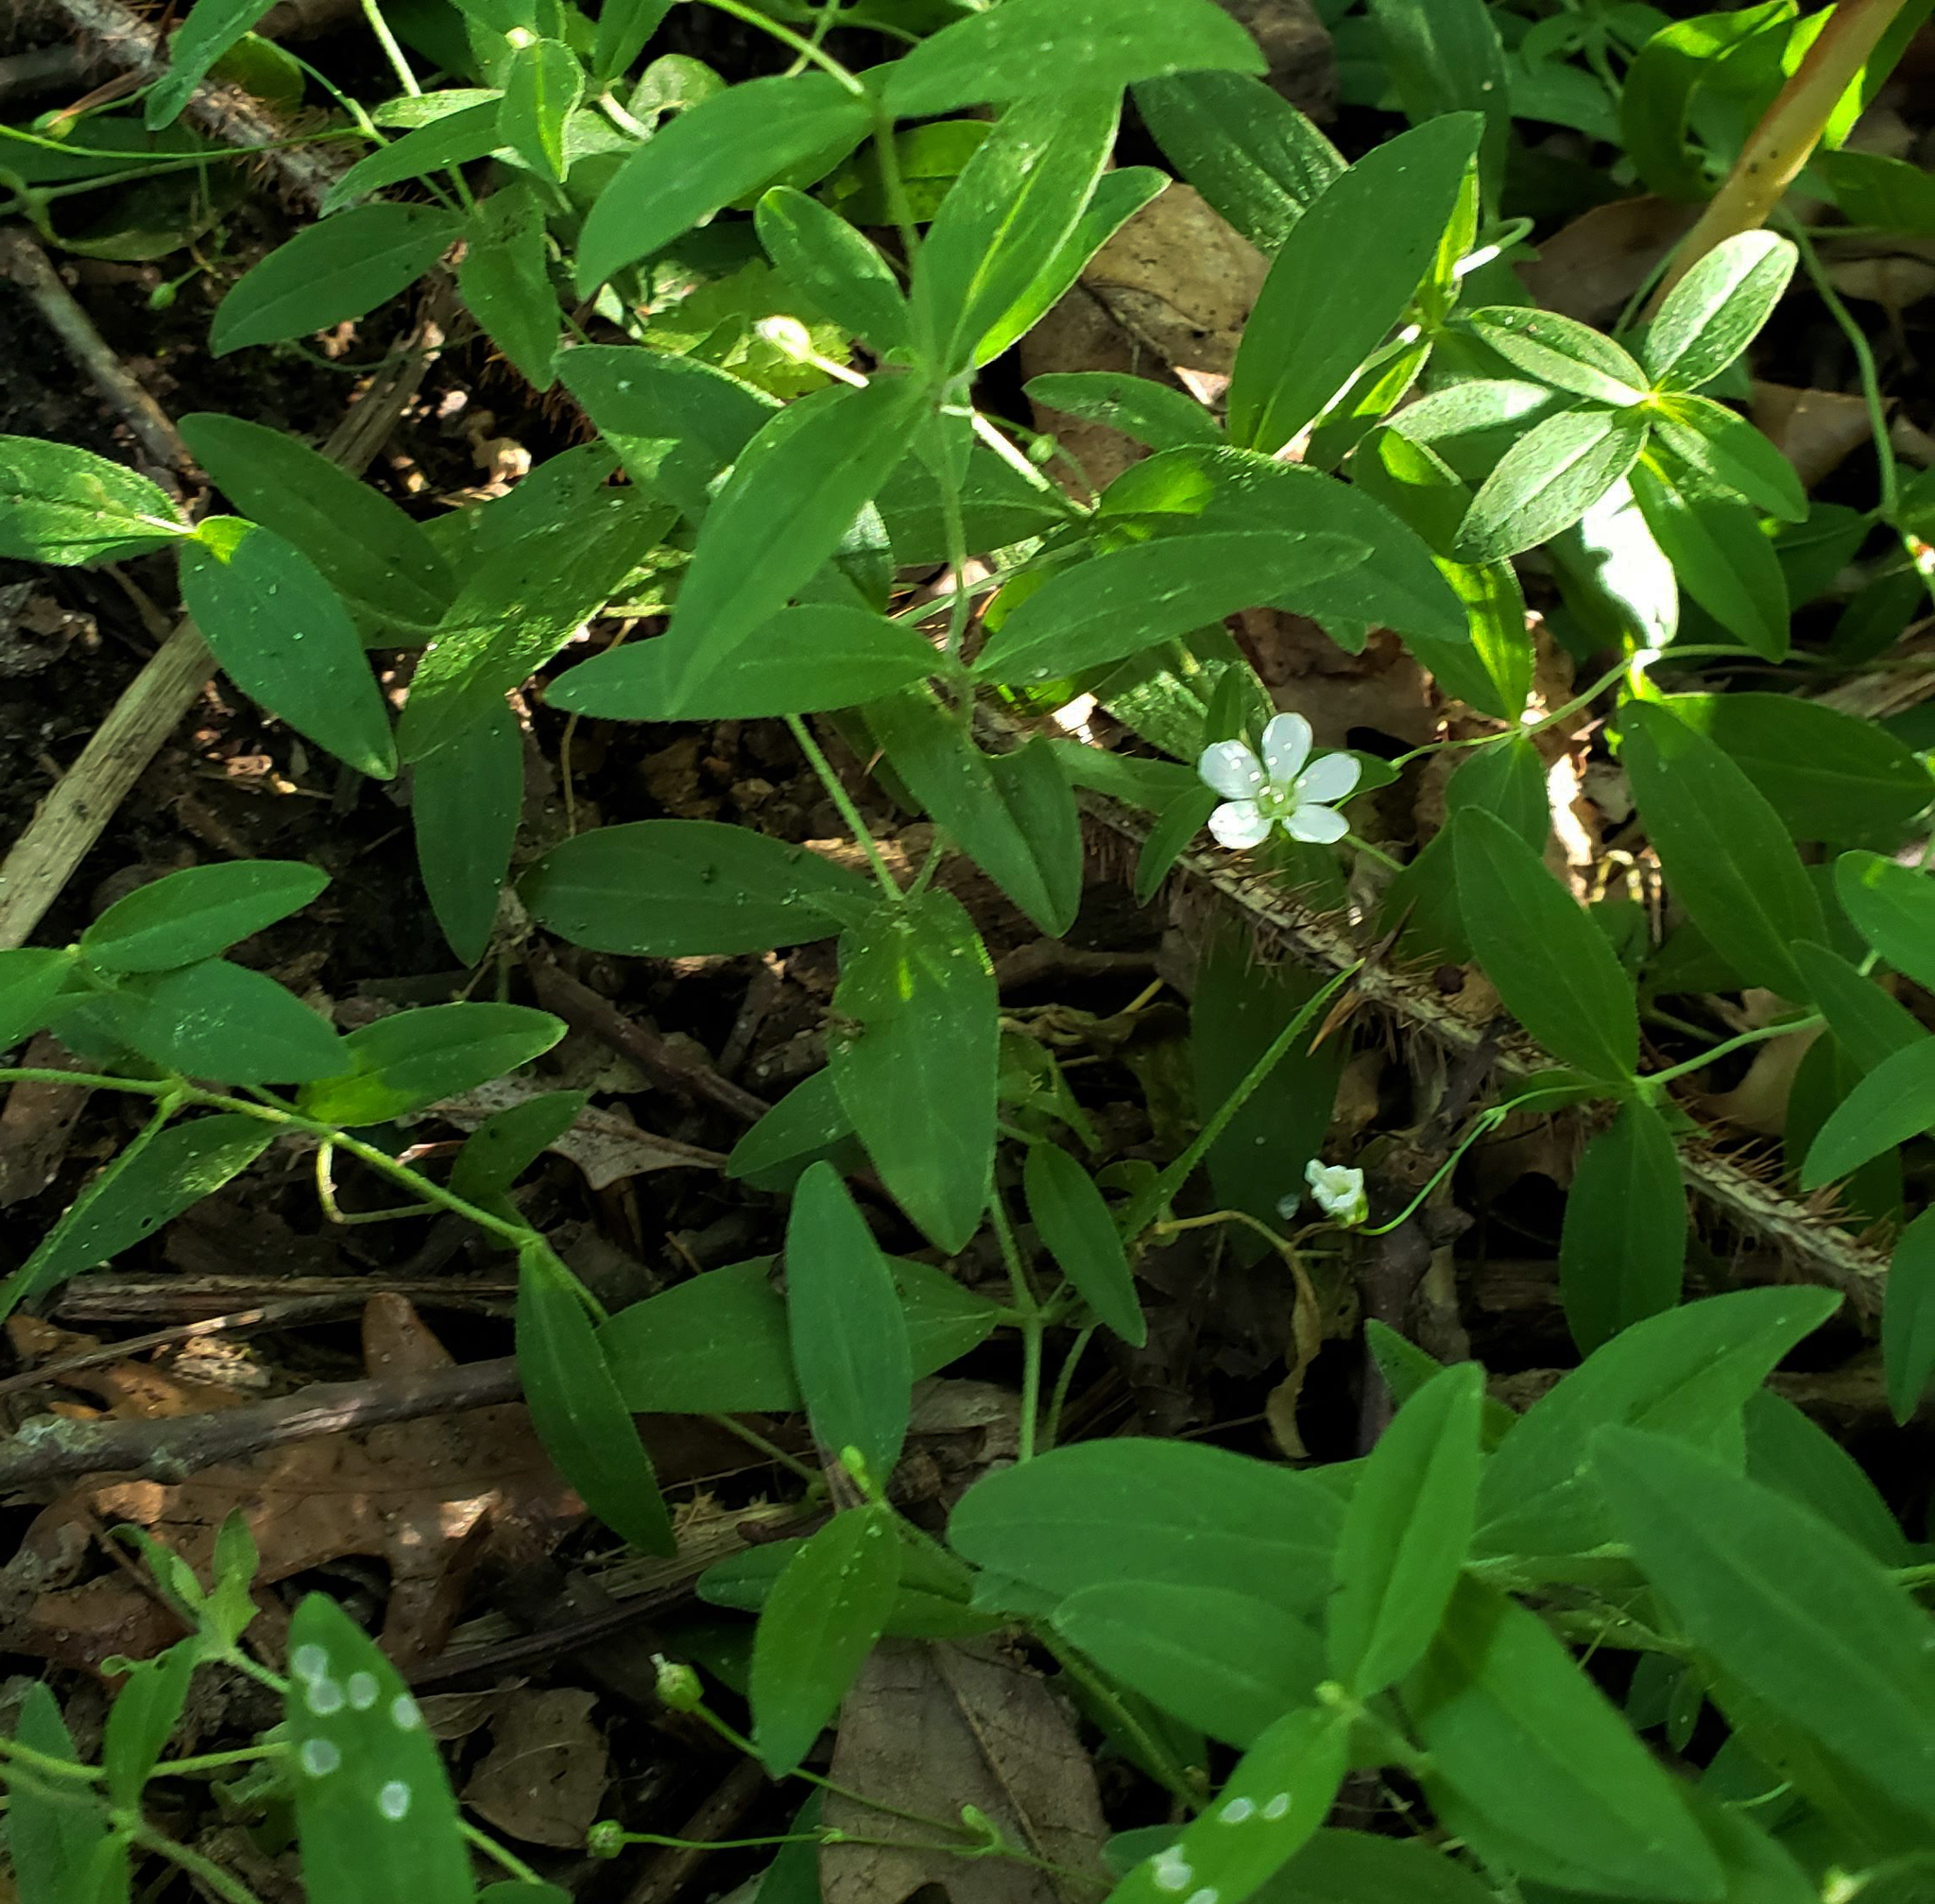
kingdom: Plantae
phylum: Tracheophyta
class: Magnoliopsida
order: Caryophyllales
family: Caryophyllaceae
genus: Moehringia
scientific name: Moehringia lateriflora
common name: Blunt-leaved sandwort
